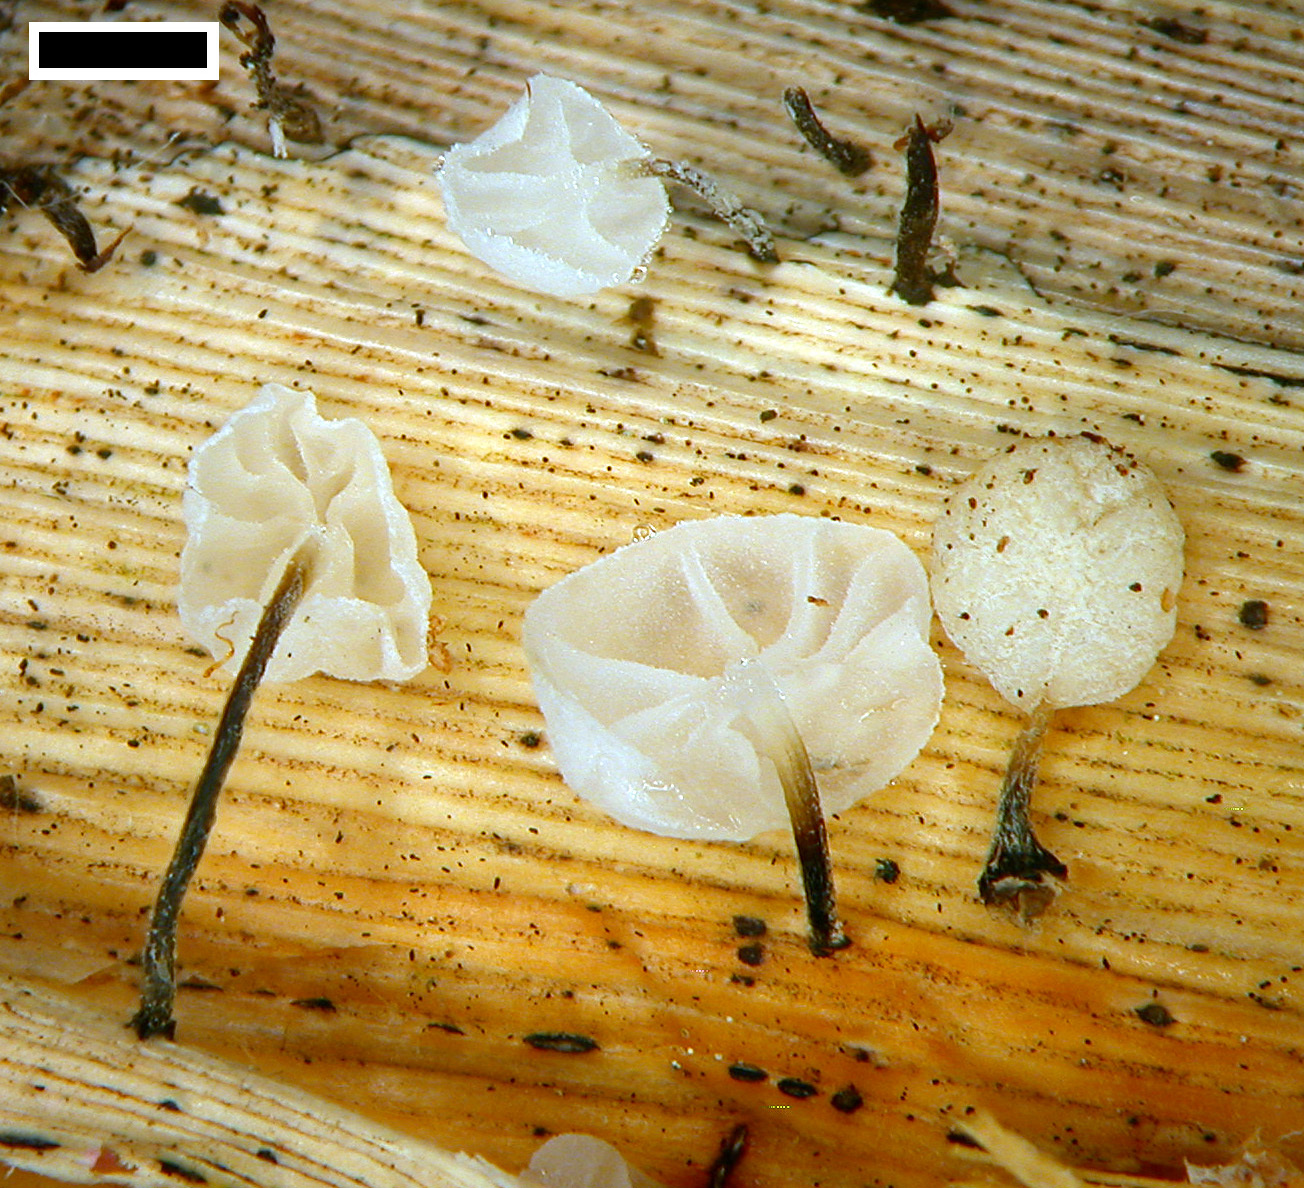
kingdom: Fungi
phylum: Basidiomycota
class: Agaricomycetes
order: Agaricales
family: Marasmiaceae
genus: Campanella
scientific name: Campanella
